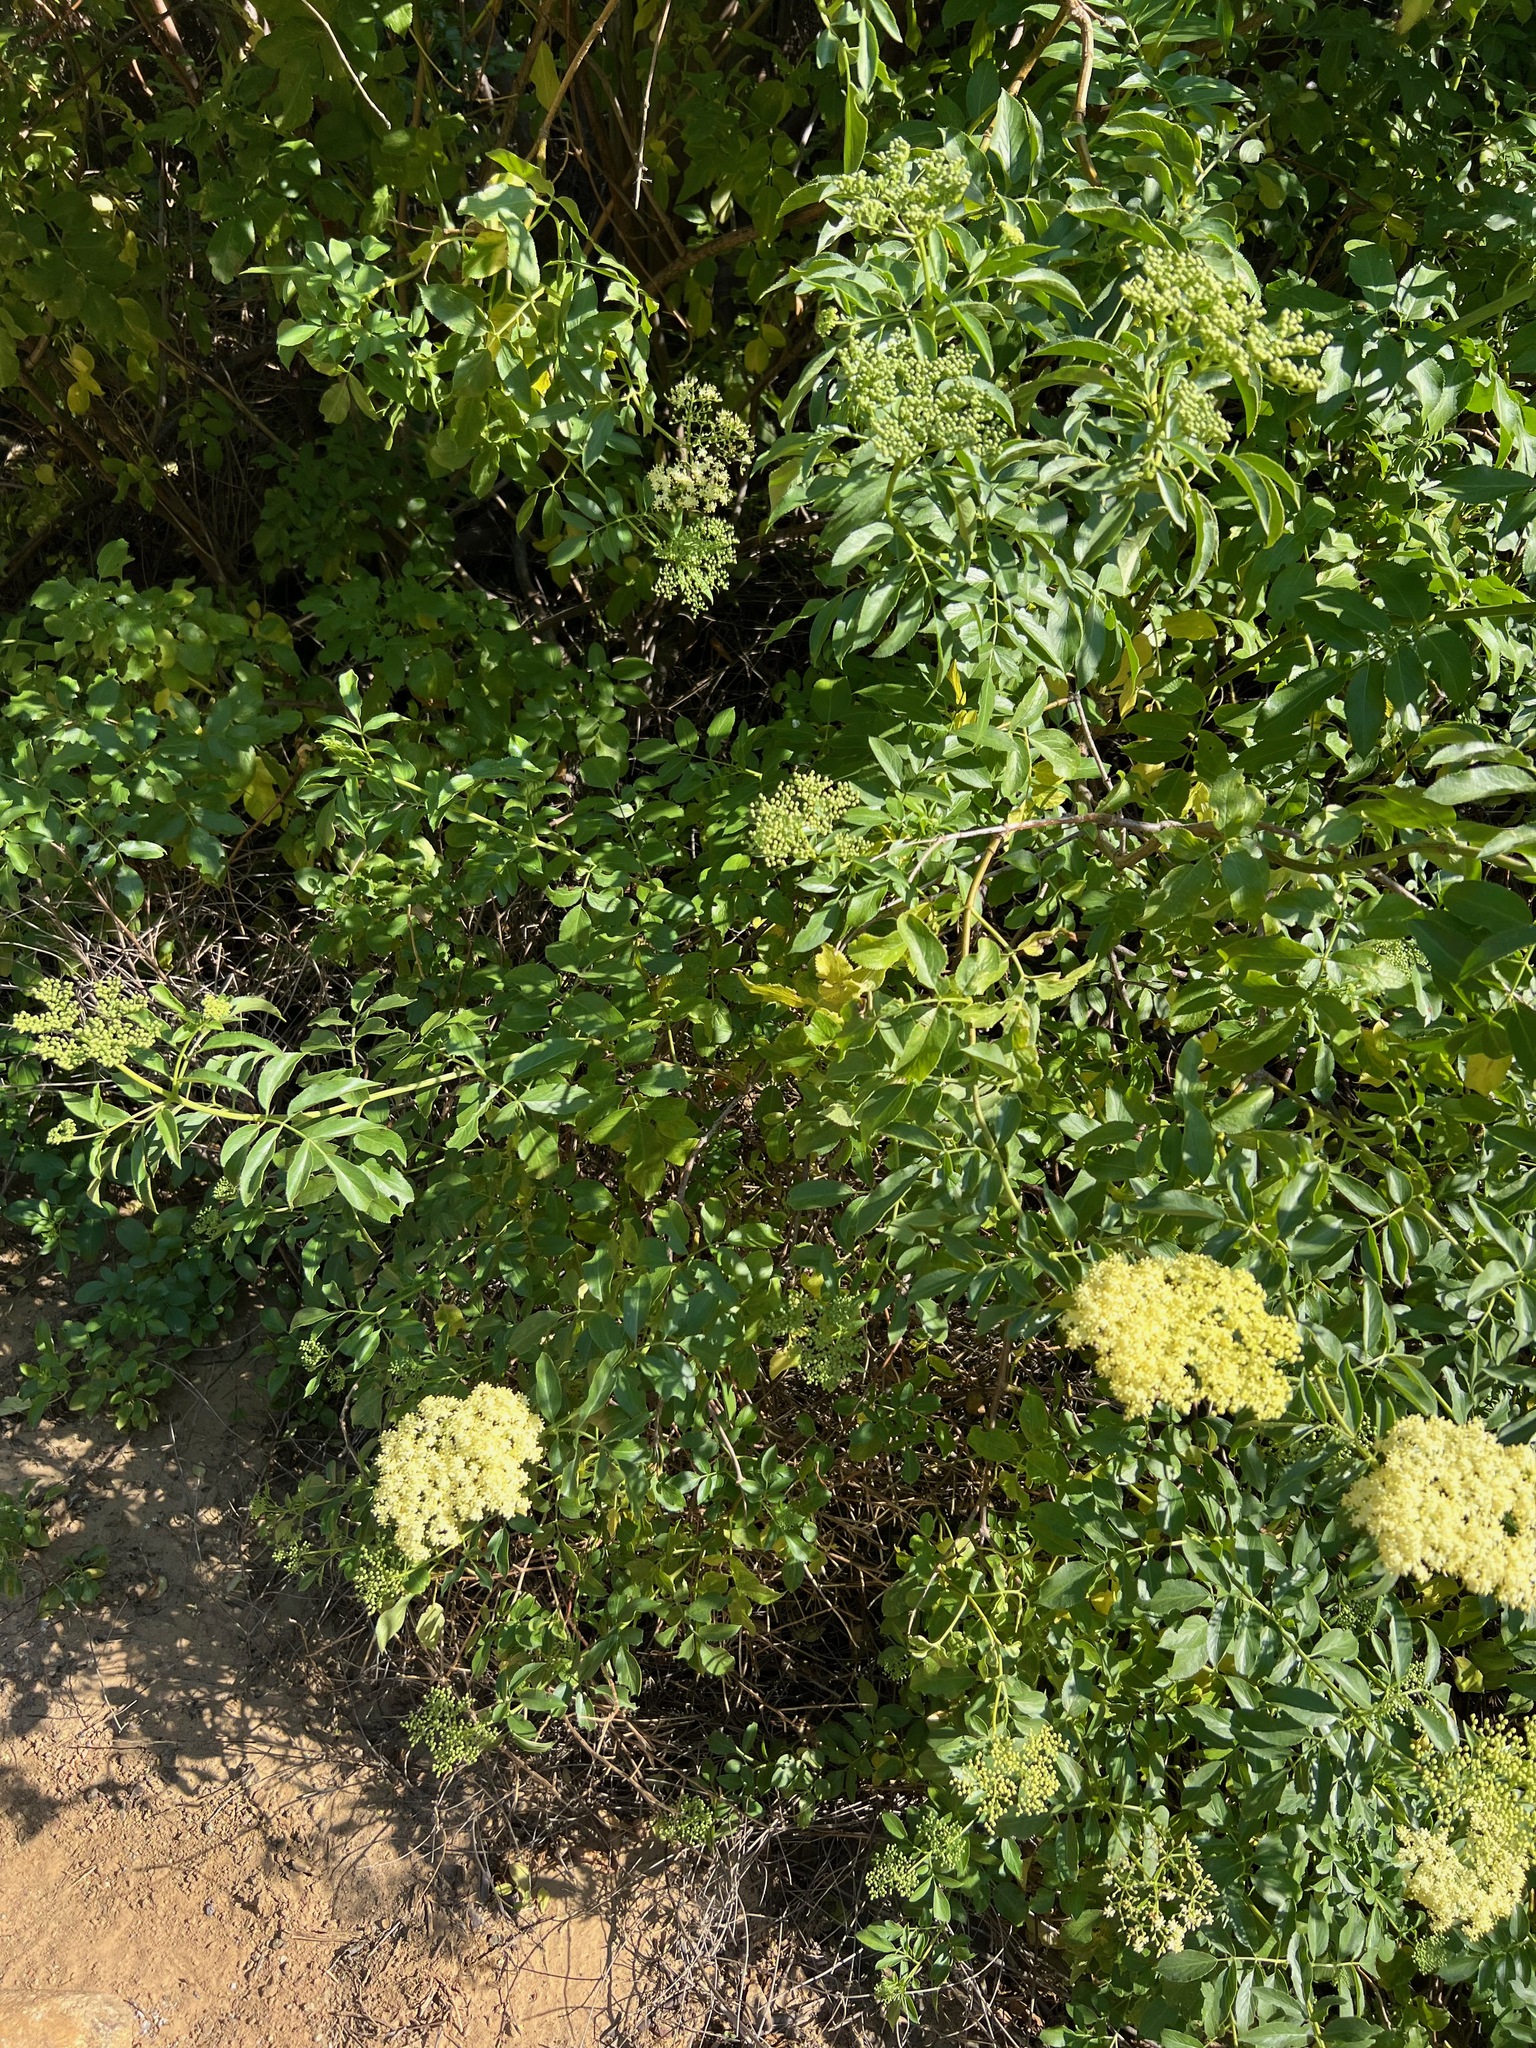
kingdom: Plantae
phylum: Tracheophyta
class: Magnoliopsida
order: Dipsacales
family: Viburnaceae
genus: Sambucus
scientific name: Sambucus cerulea
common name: Blue elder
